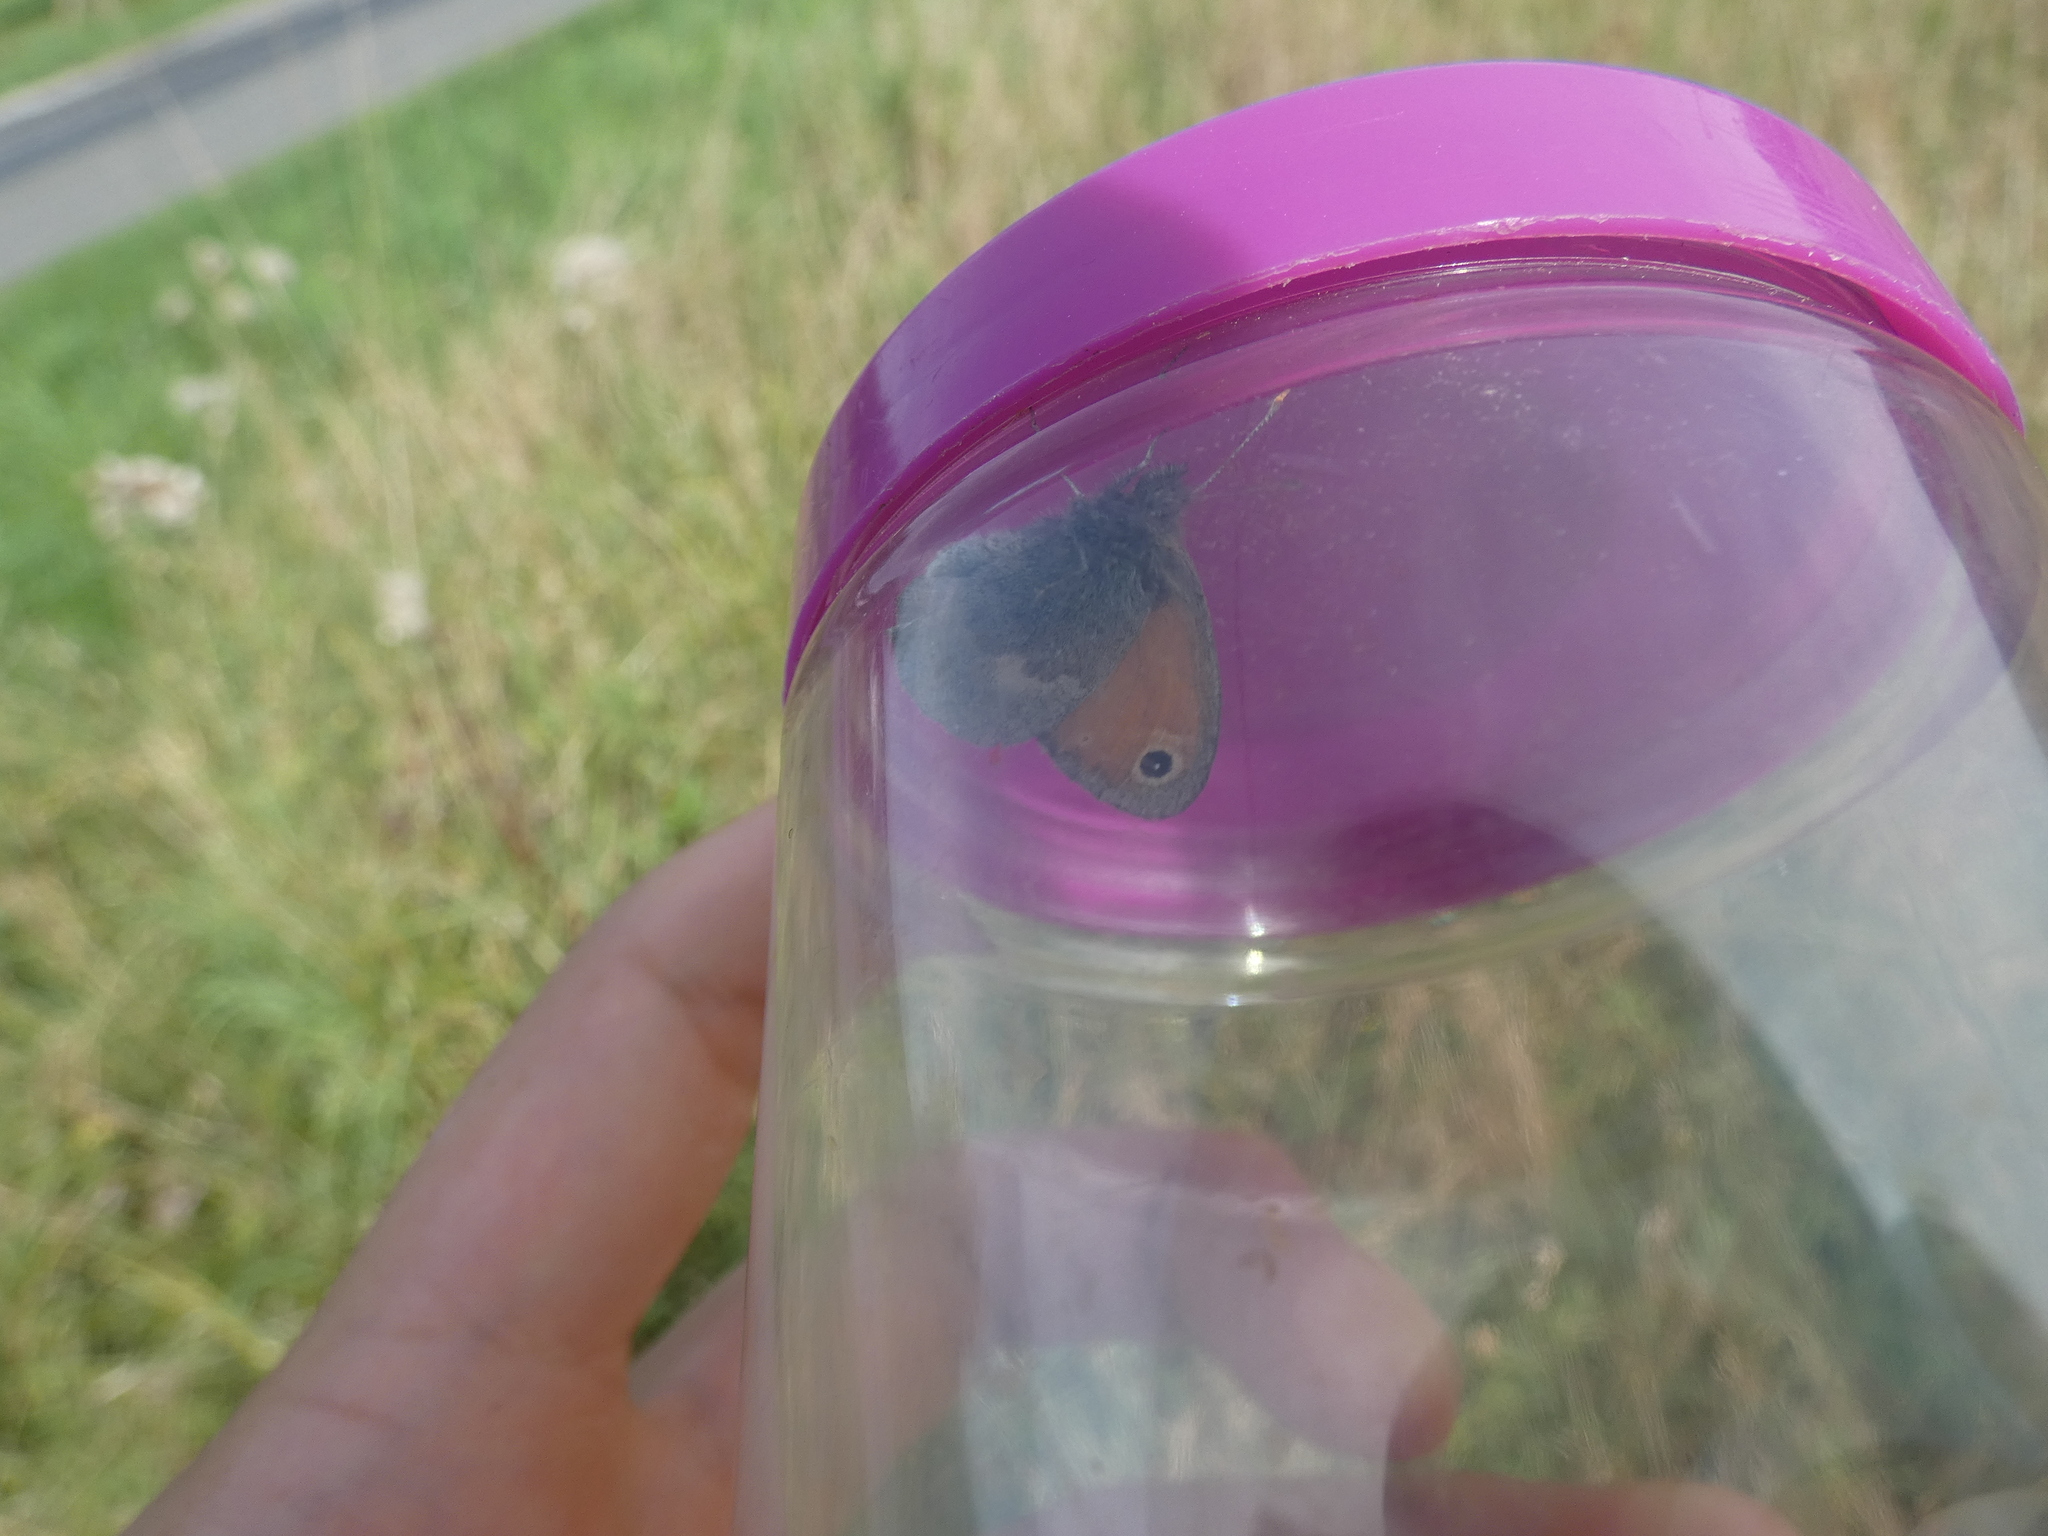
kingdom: Animalia
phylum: Arthropoda
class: Insecta
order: Lepidoptera
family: Nymphalidae
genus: Coenonympha
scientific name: Coenonympha pamphilus
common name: Small heath
